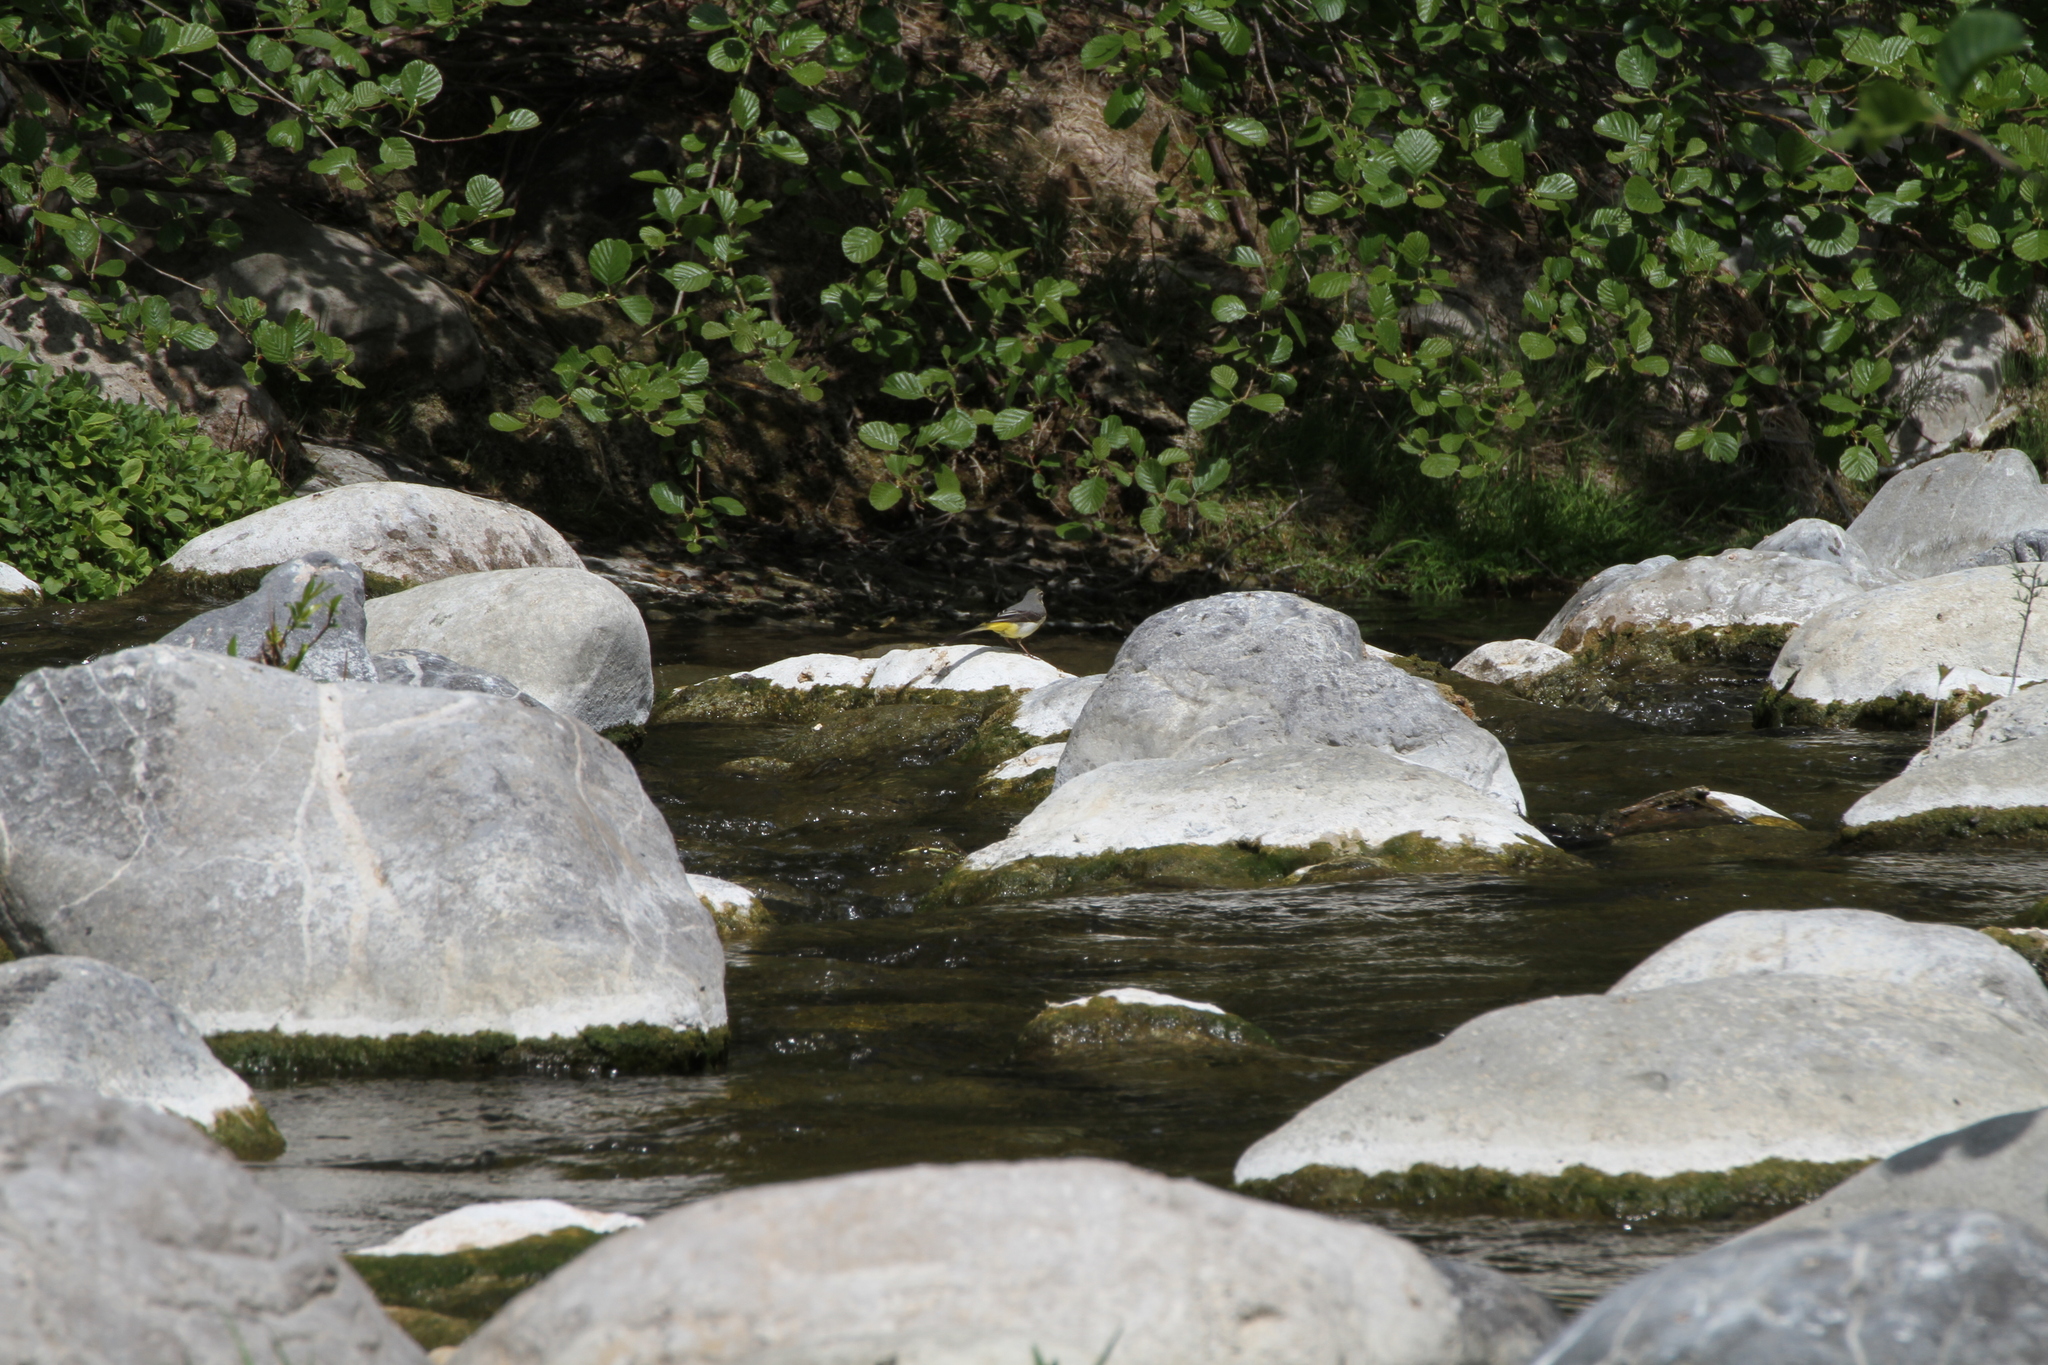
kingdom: Animalia
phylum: Chordata
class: Aves
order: Passeriformes
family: Motacillidae
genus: Motacilla
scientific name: Motacilla cinerea
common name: Grey wagtail
